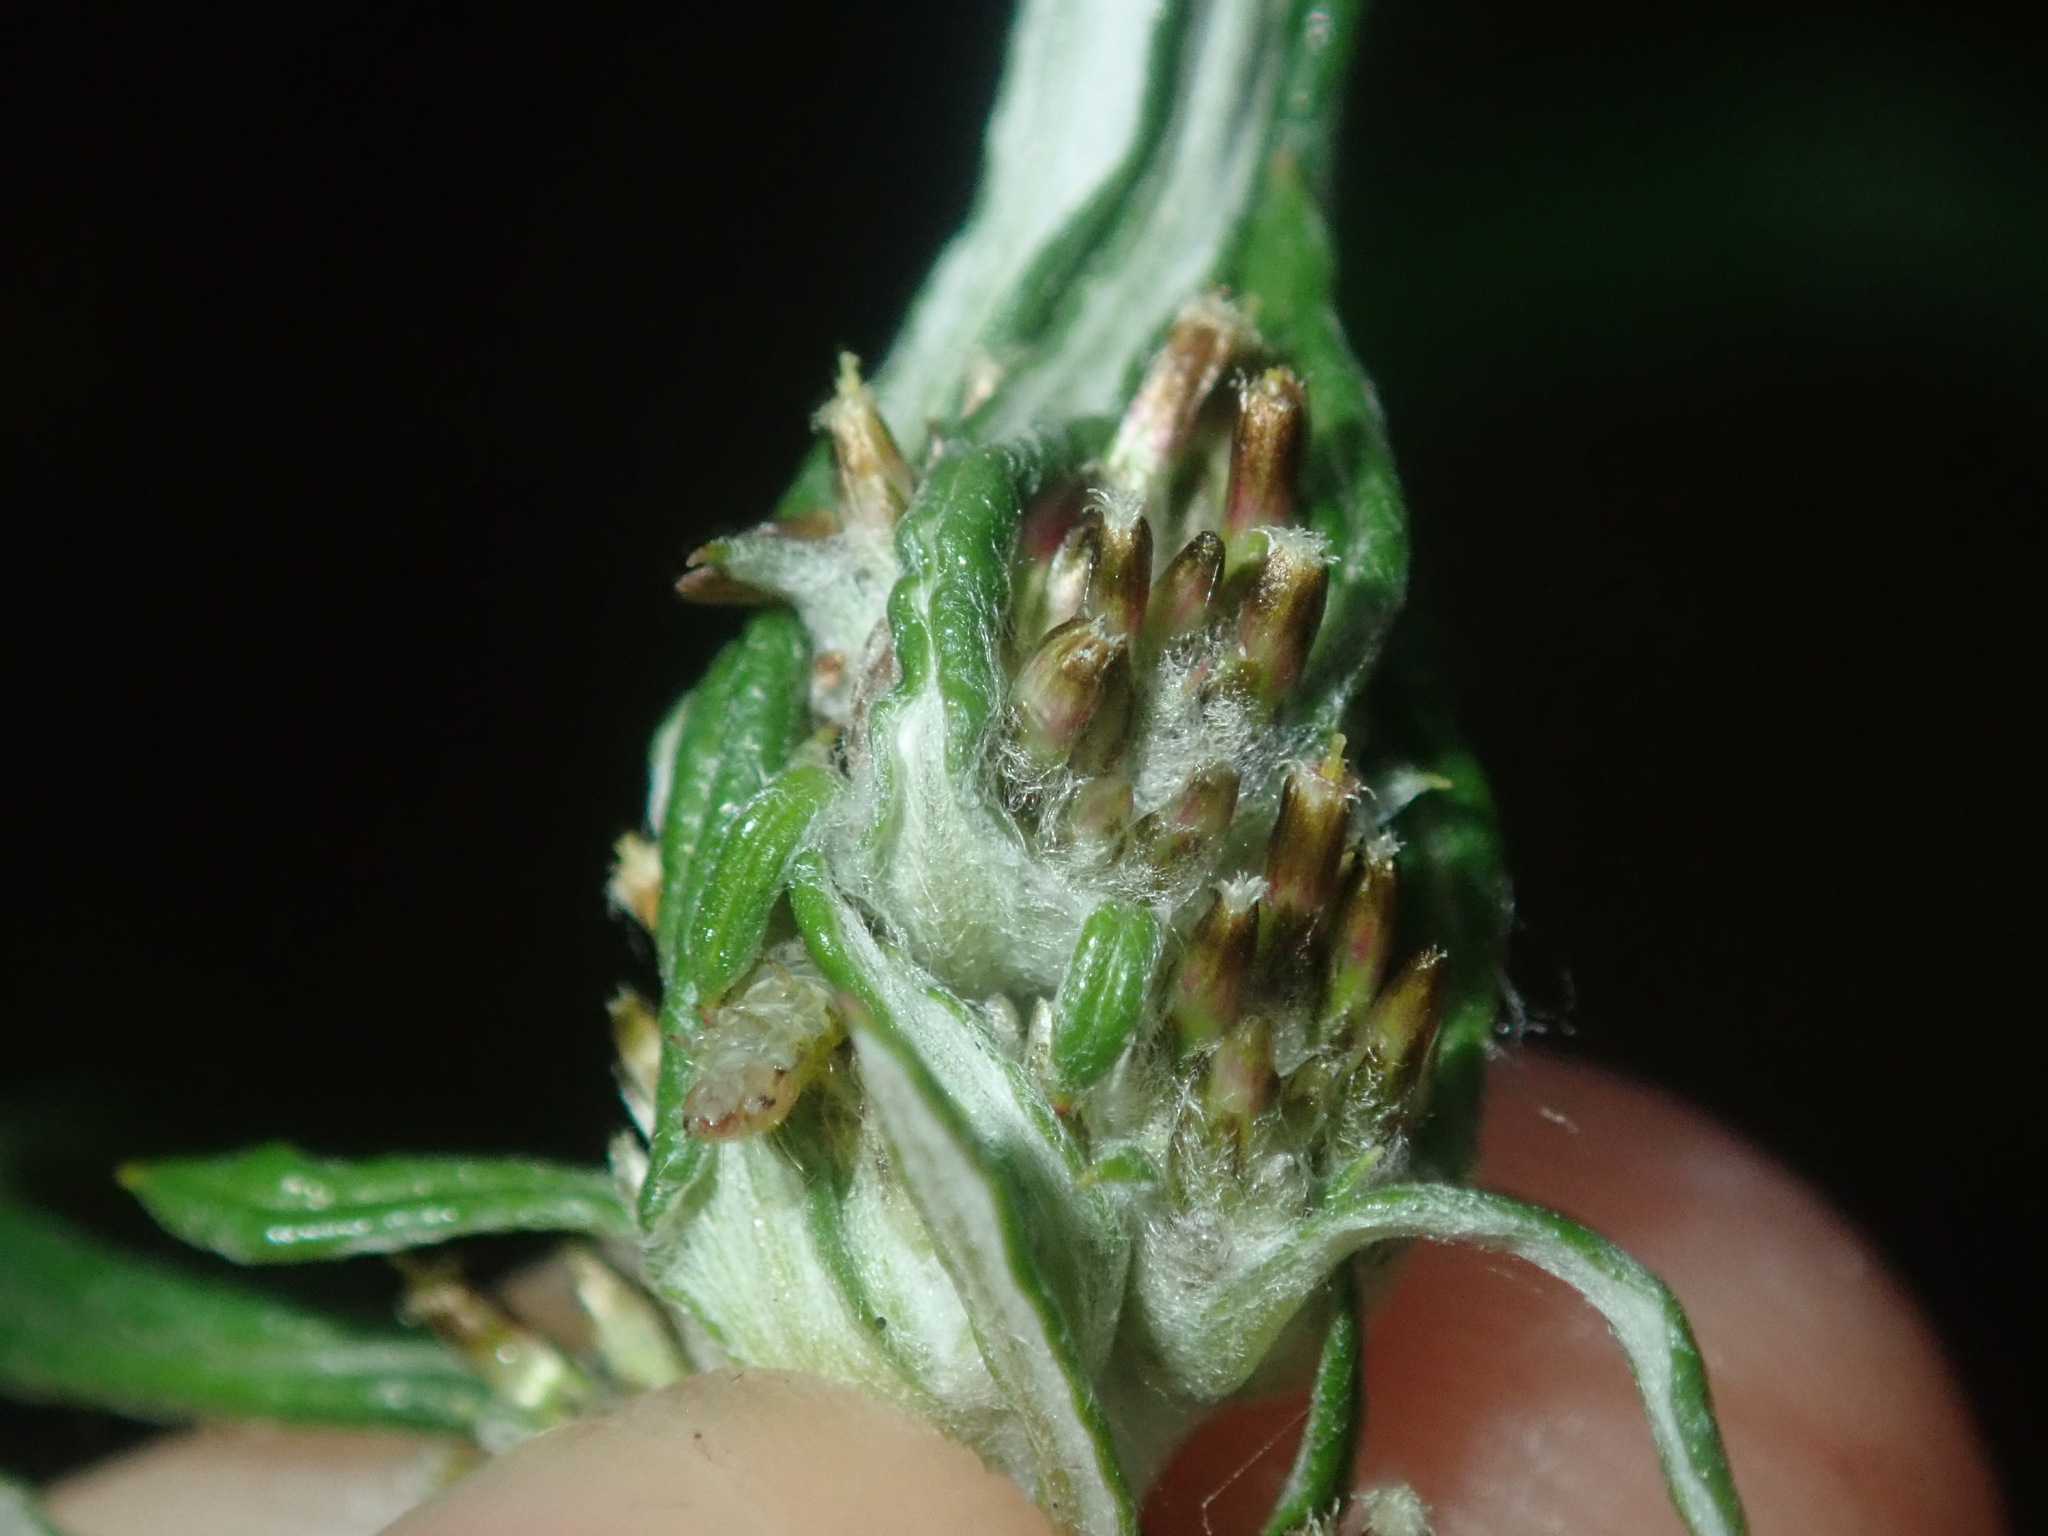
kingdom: Plantae
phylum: Tracheophyta
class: Magnoliopsida
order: Asterales
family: Asteraceae
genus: Euchiton
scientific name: Euchiton involucratus
